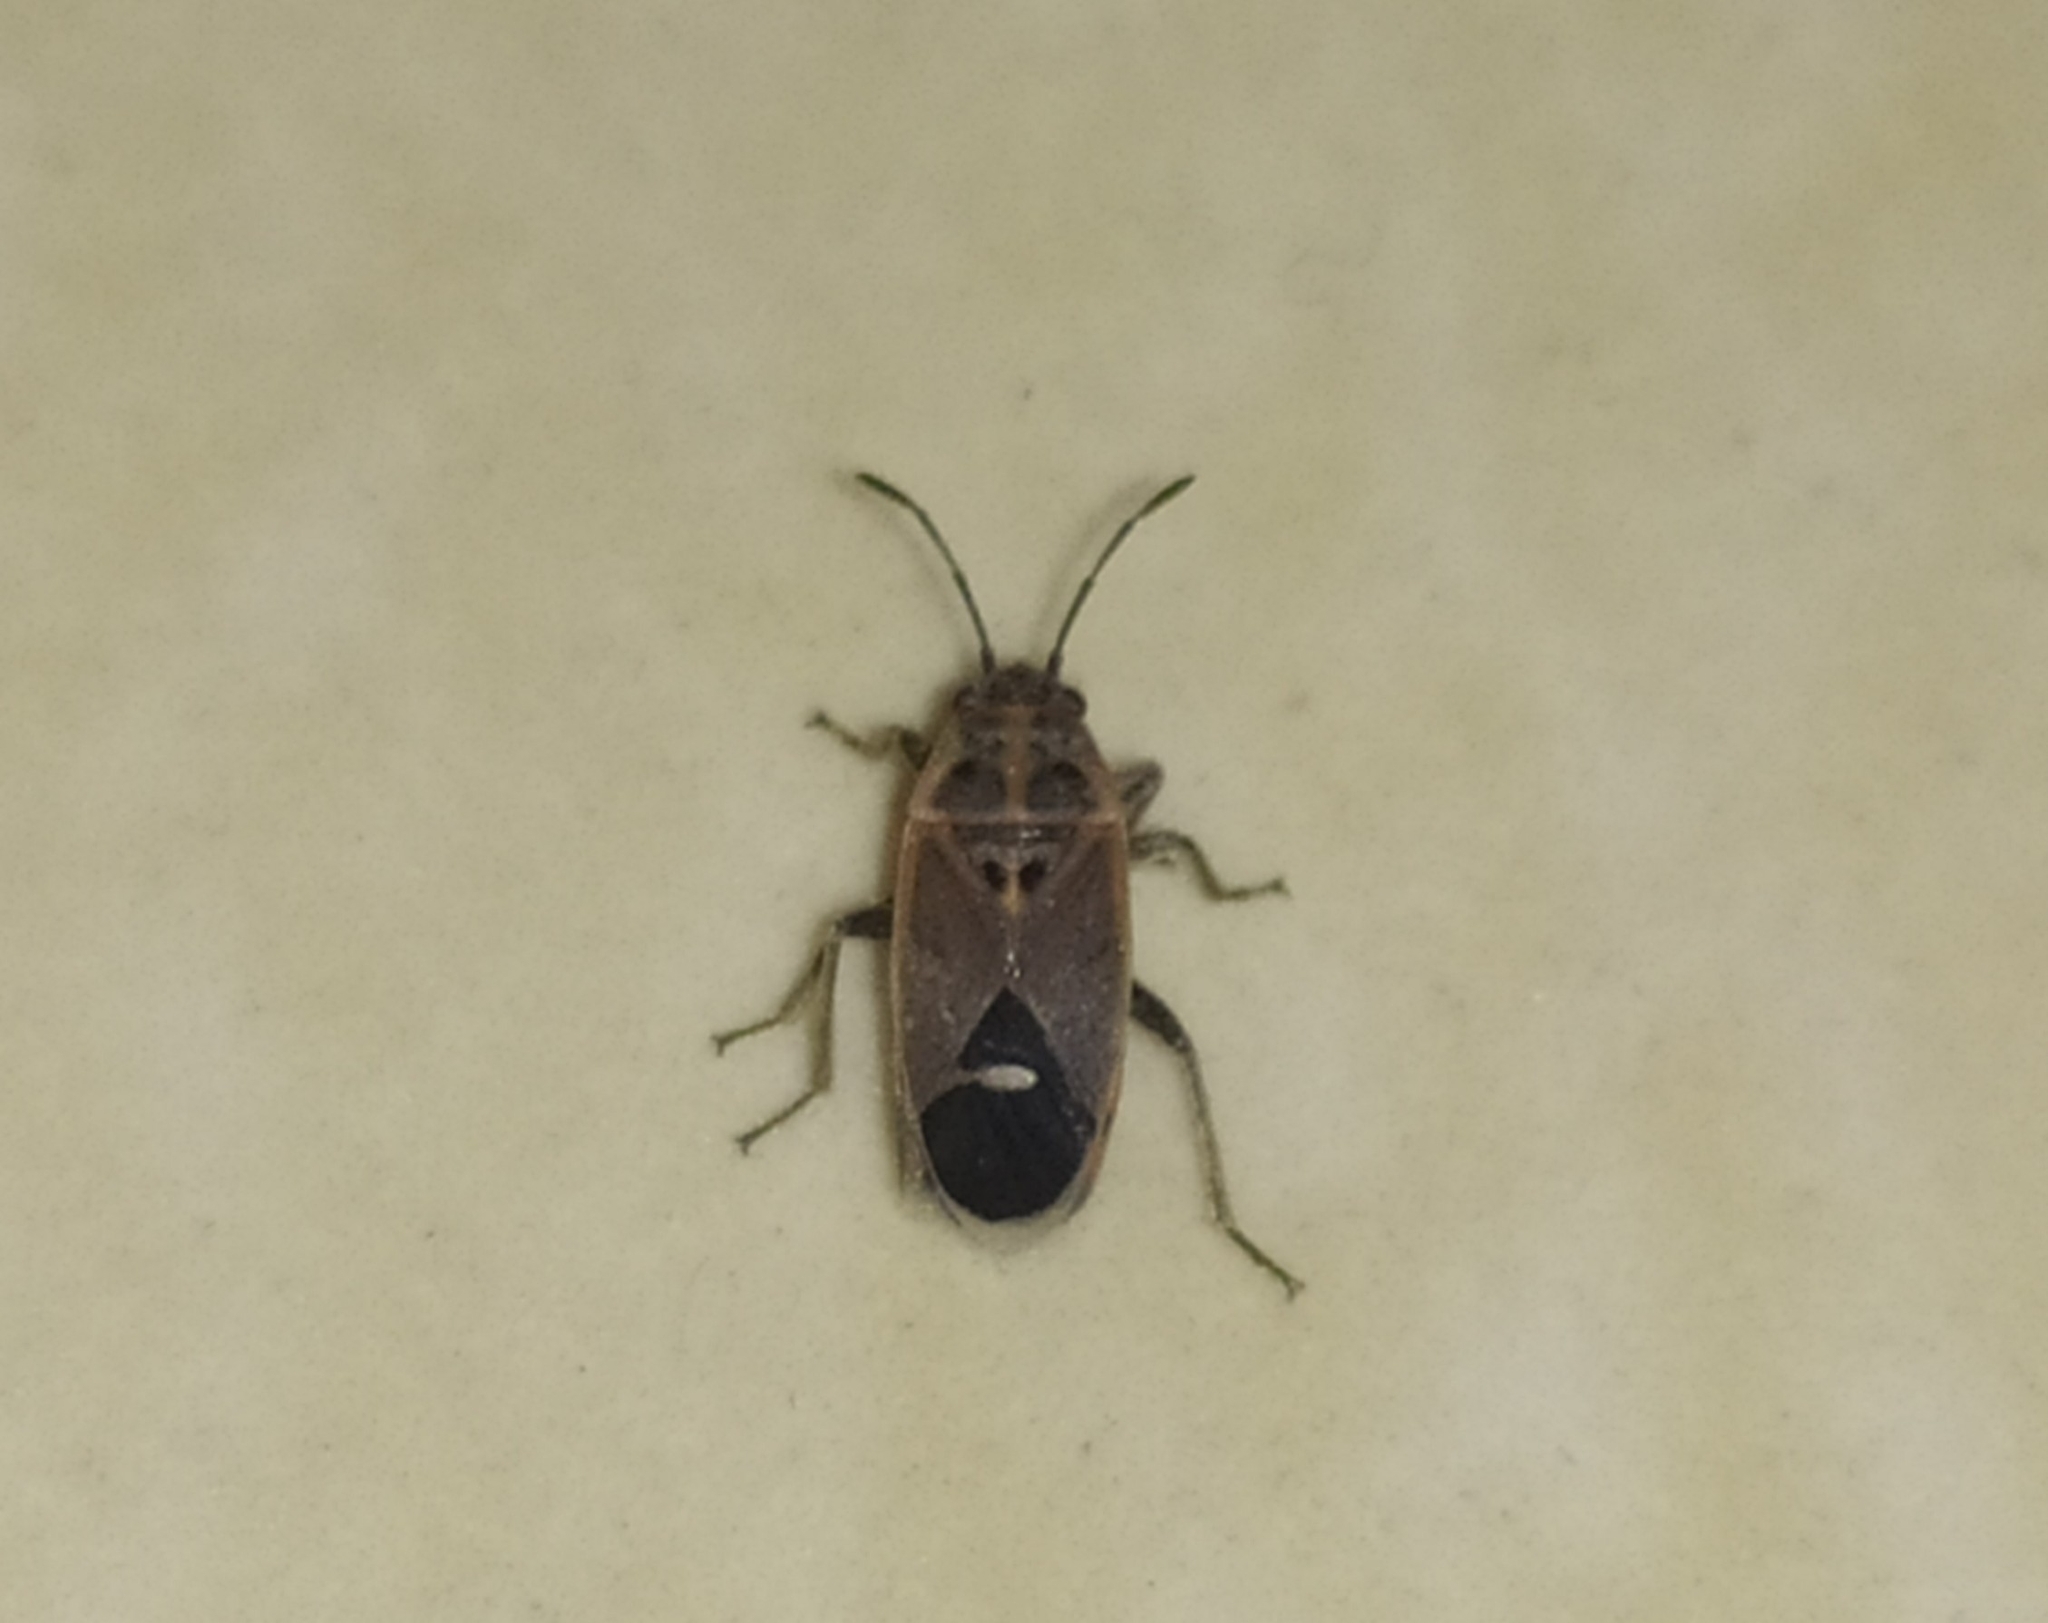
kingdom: Animalia
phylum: Arthropoda
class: Insecta
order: Hemiptera
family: Lygaeidae
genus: Aspilocoryphus
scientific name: Aspilocoryphus mendicus
